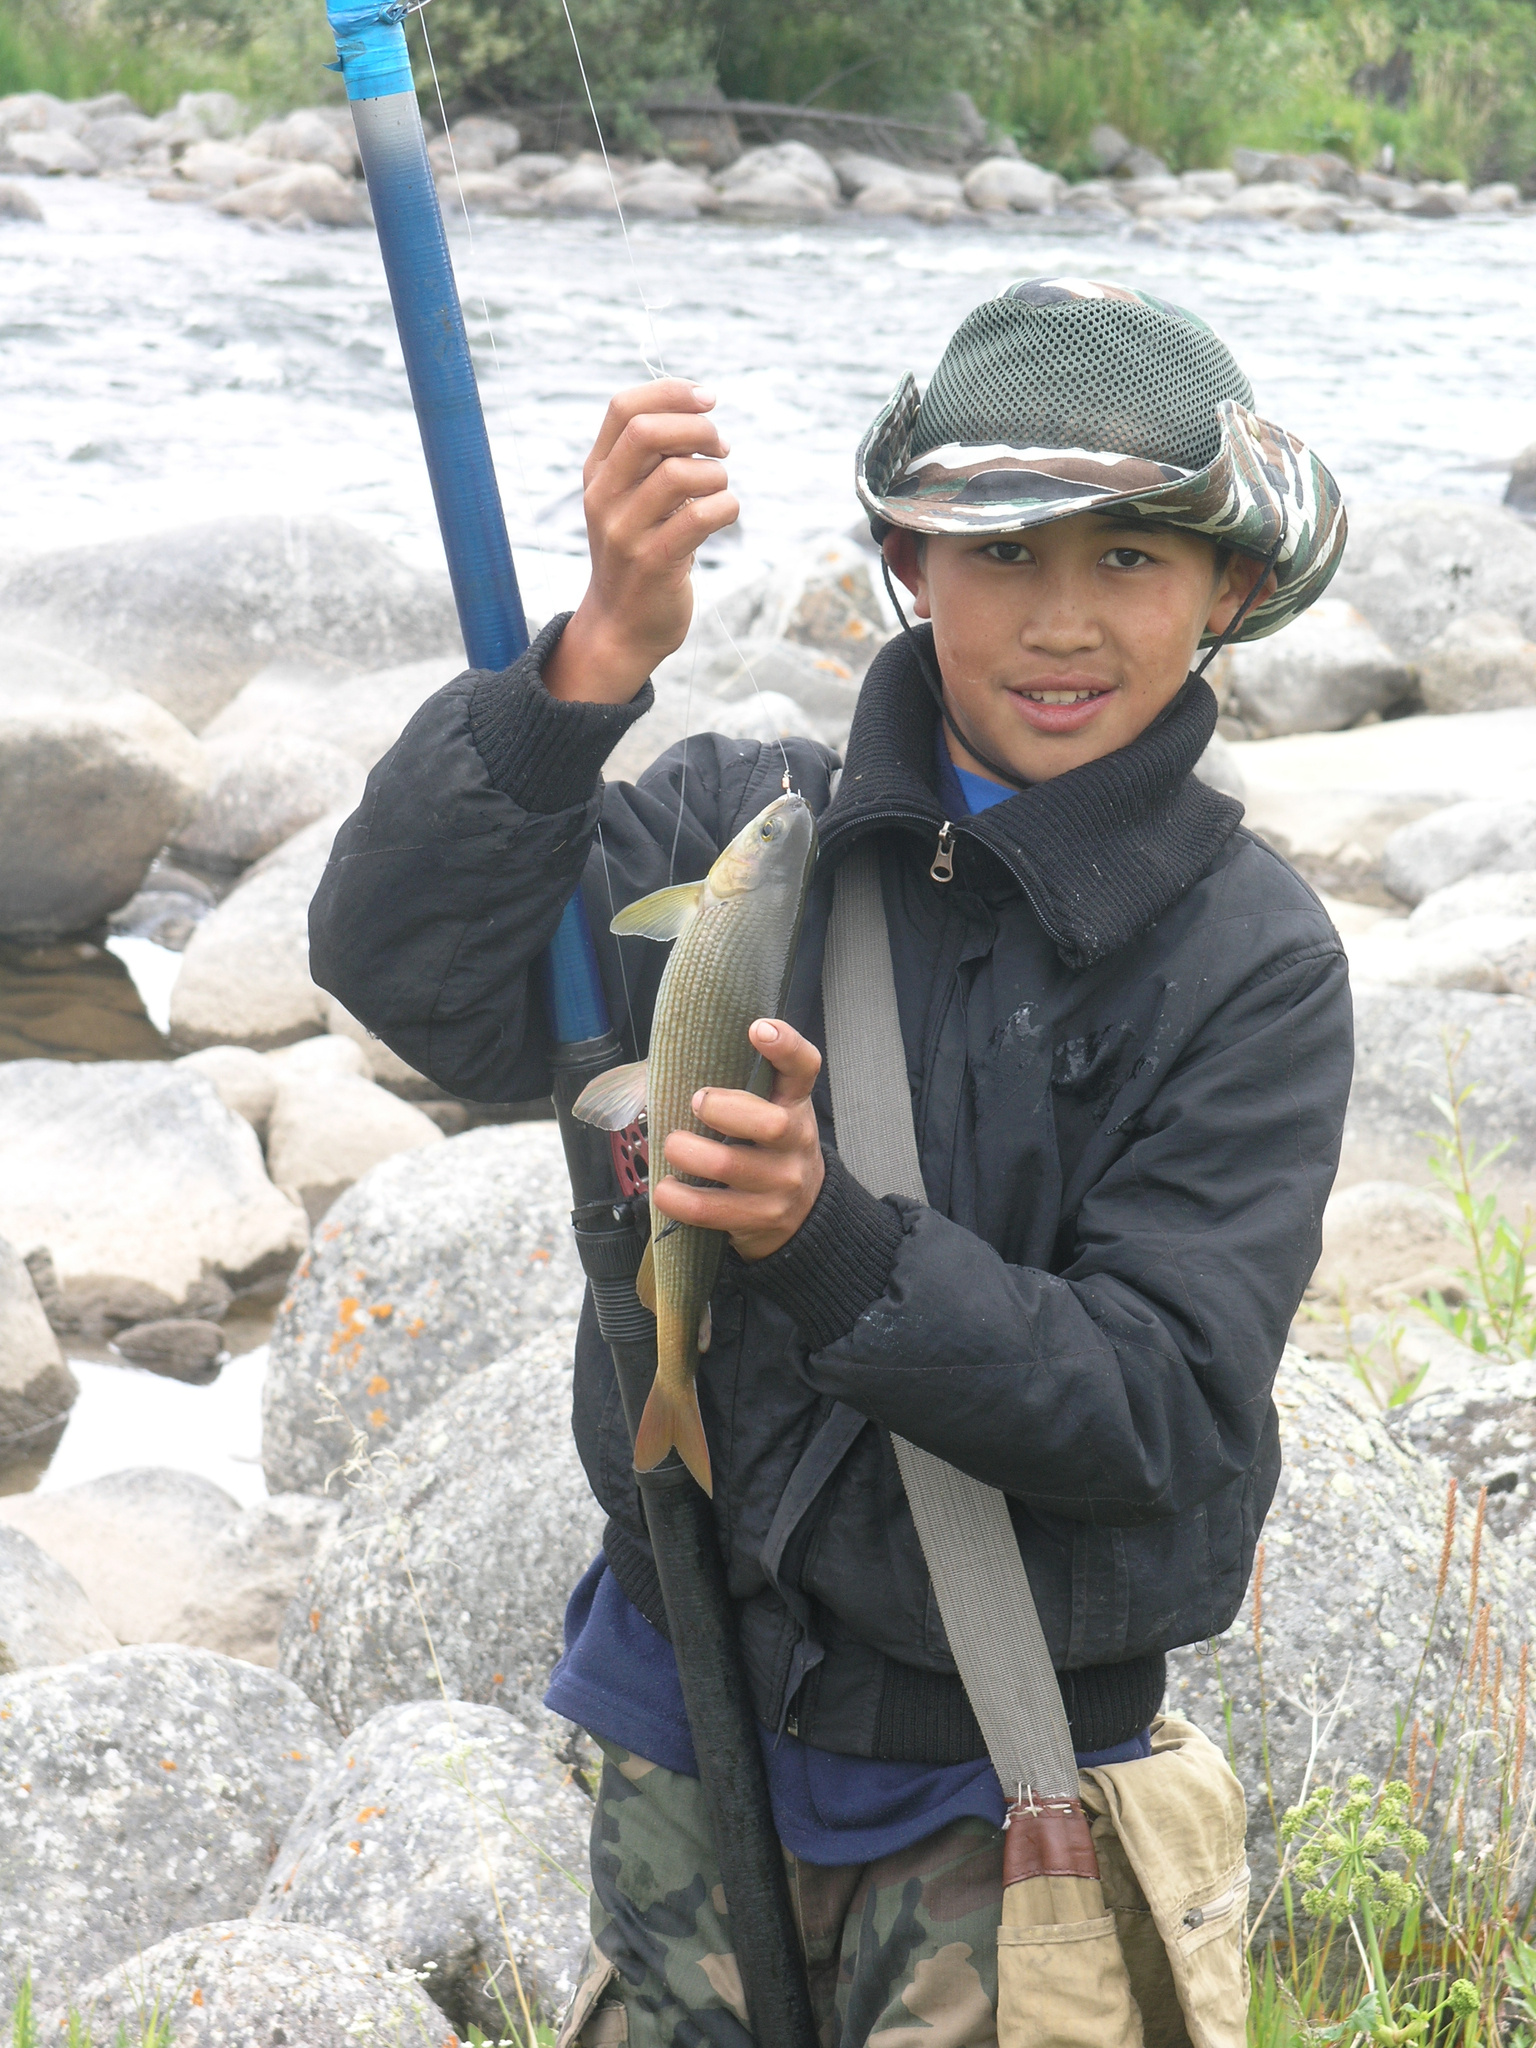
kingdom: Animalia
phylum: Chordata
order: Salmoniformes
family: Salmonidae
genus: Thymallus
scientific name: Thymallus nikolskyi
